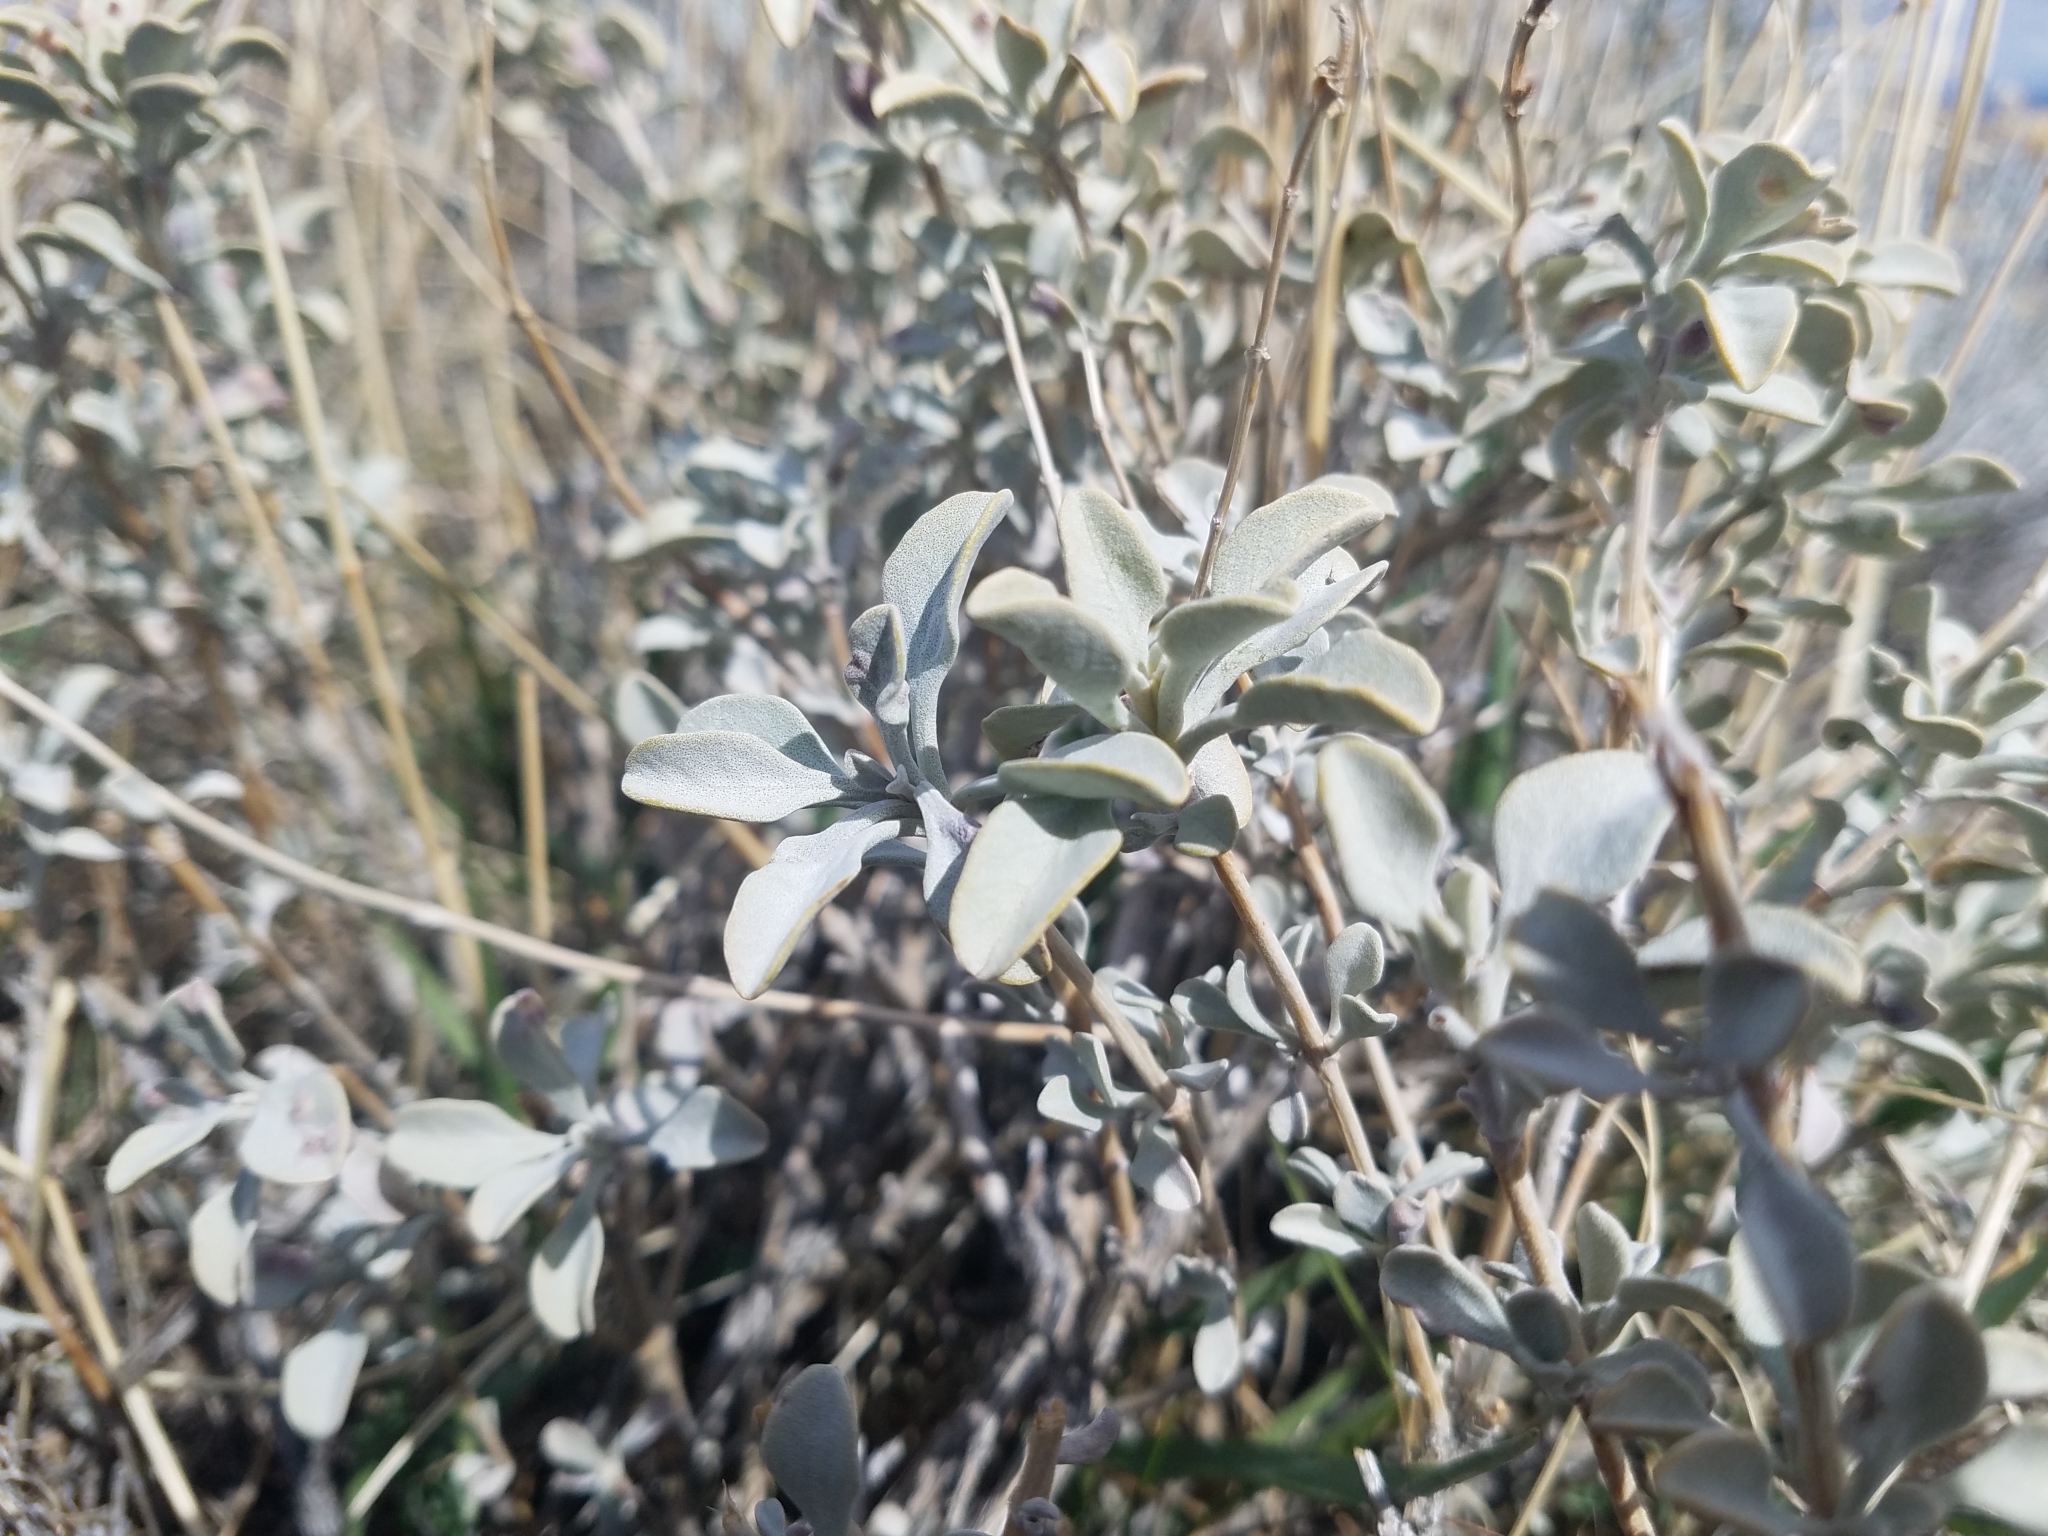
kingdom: Plantae
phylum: Tracheophyta
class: Magnoliopsida
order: Lamiales
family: Lamiaceae
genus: Salvia
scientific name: Salvia dorrii
